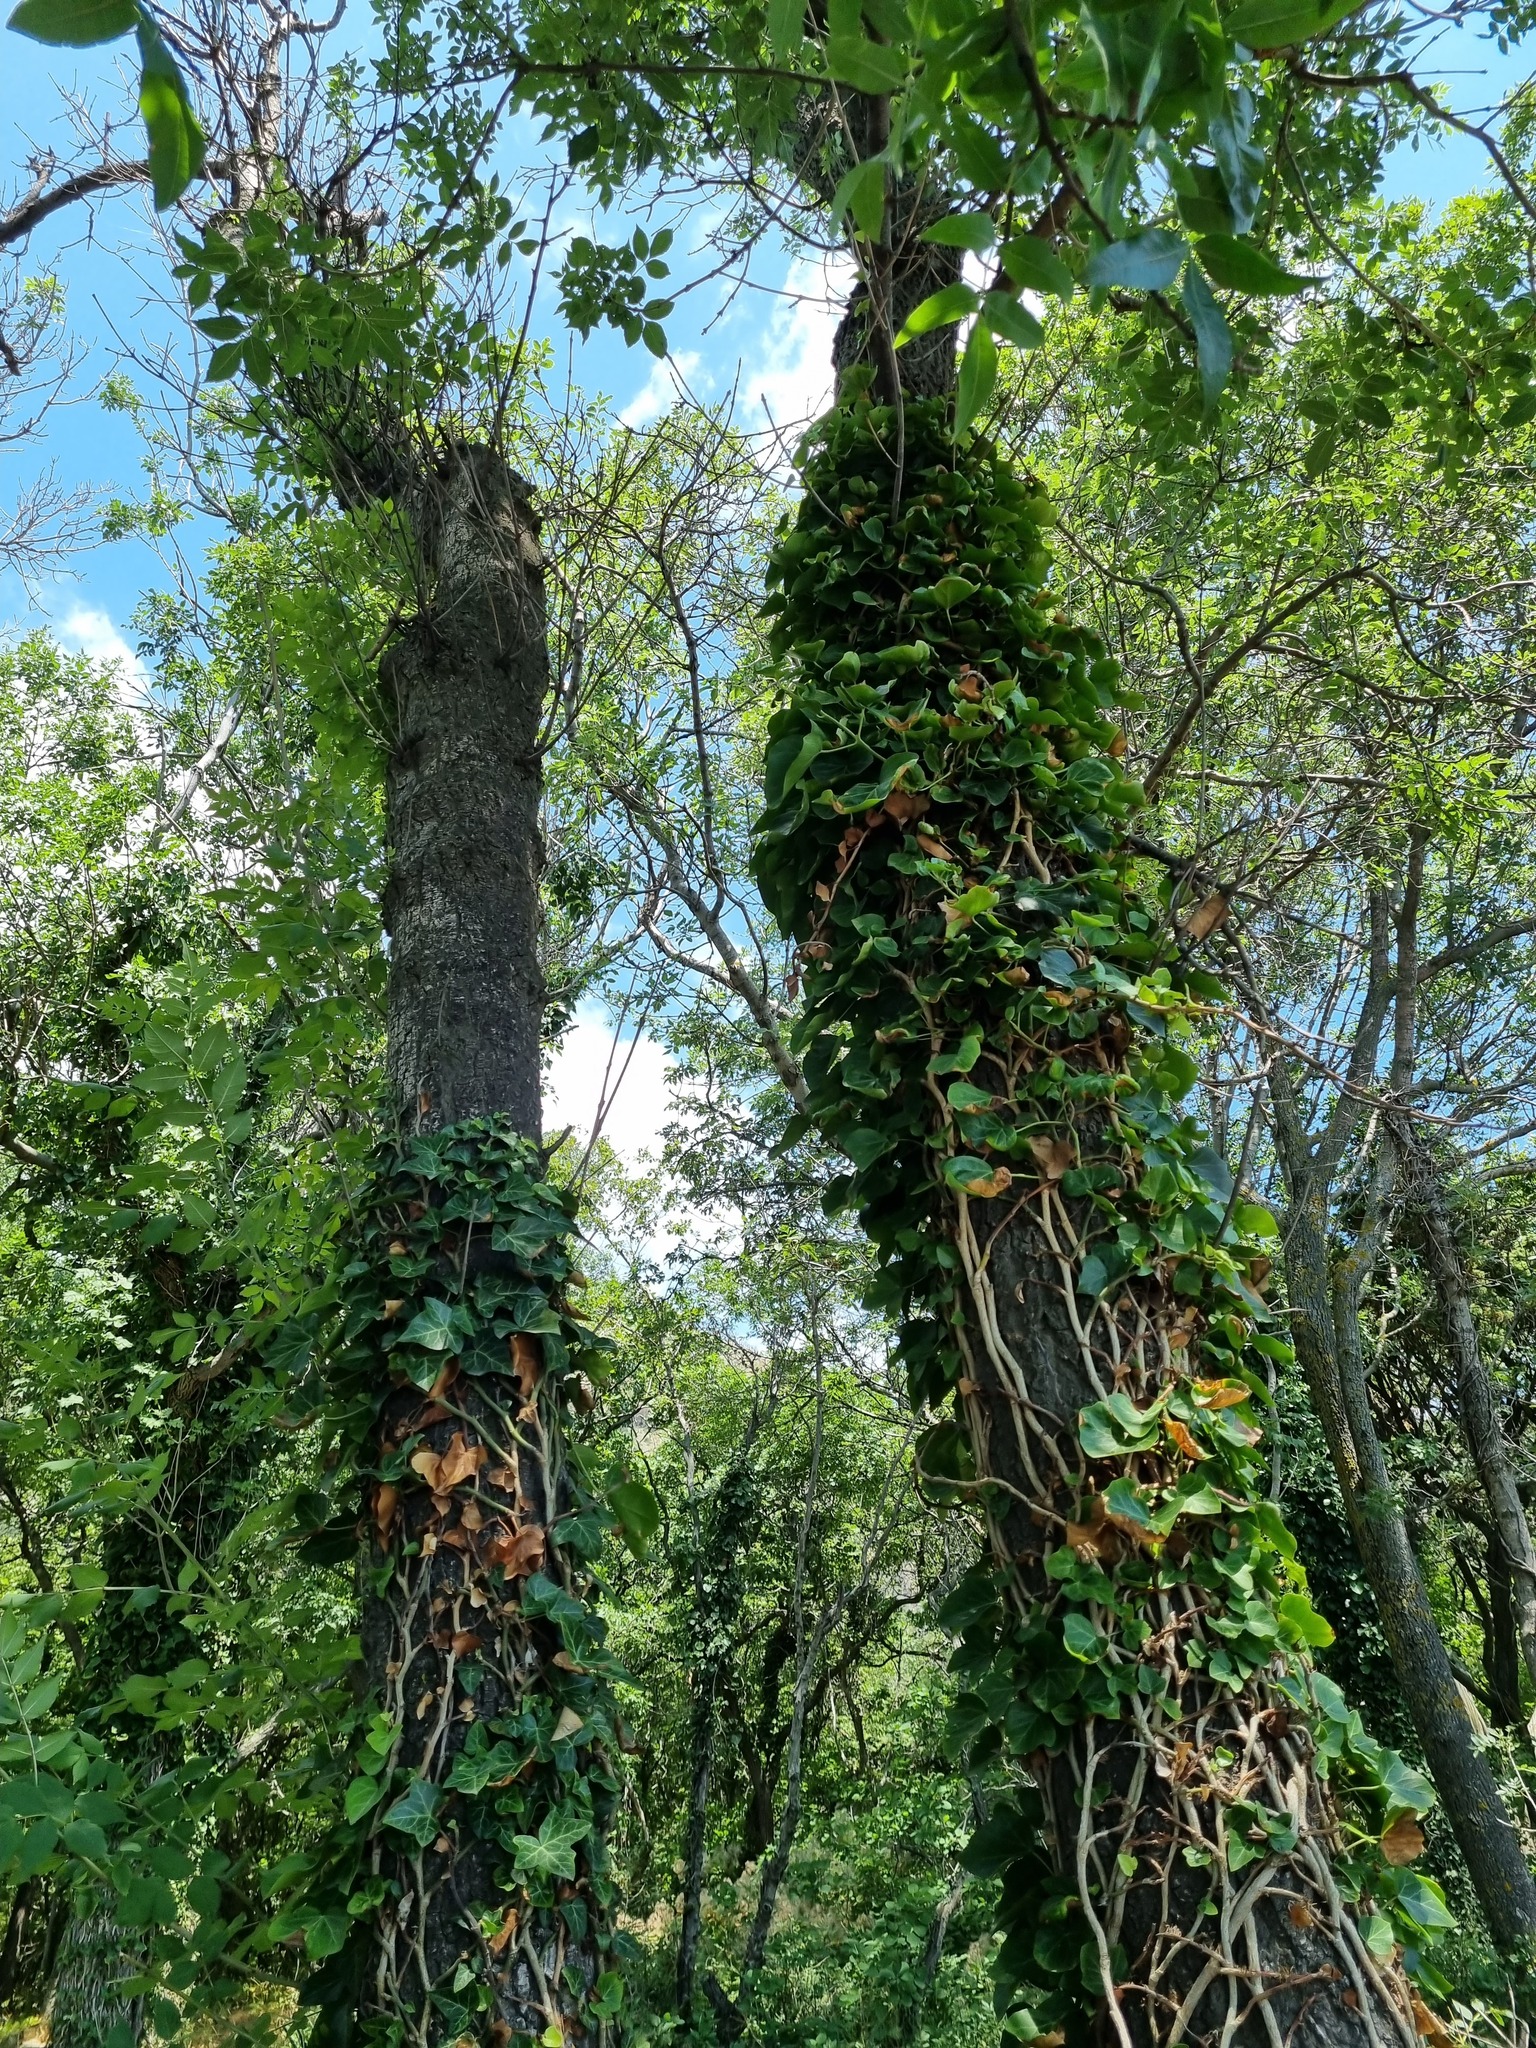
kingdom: Plantae
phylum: Tracheophyta
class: Magnoliopsida
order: Apiales
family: Araliaceae
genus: Hedera
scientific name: Hedera helix
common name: Ivy
